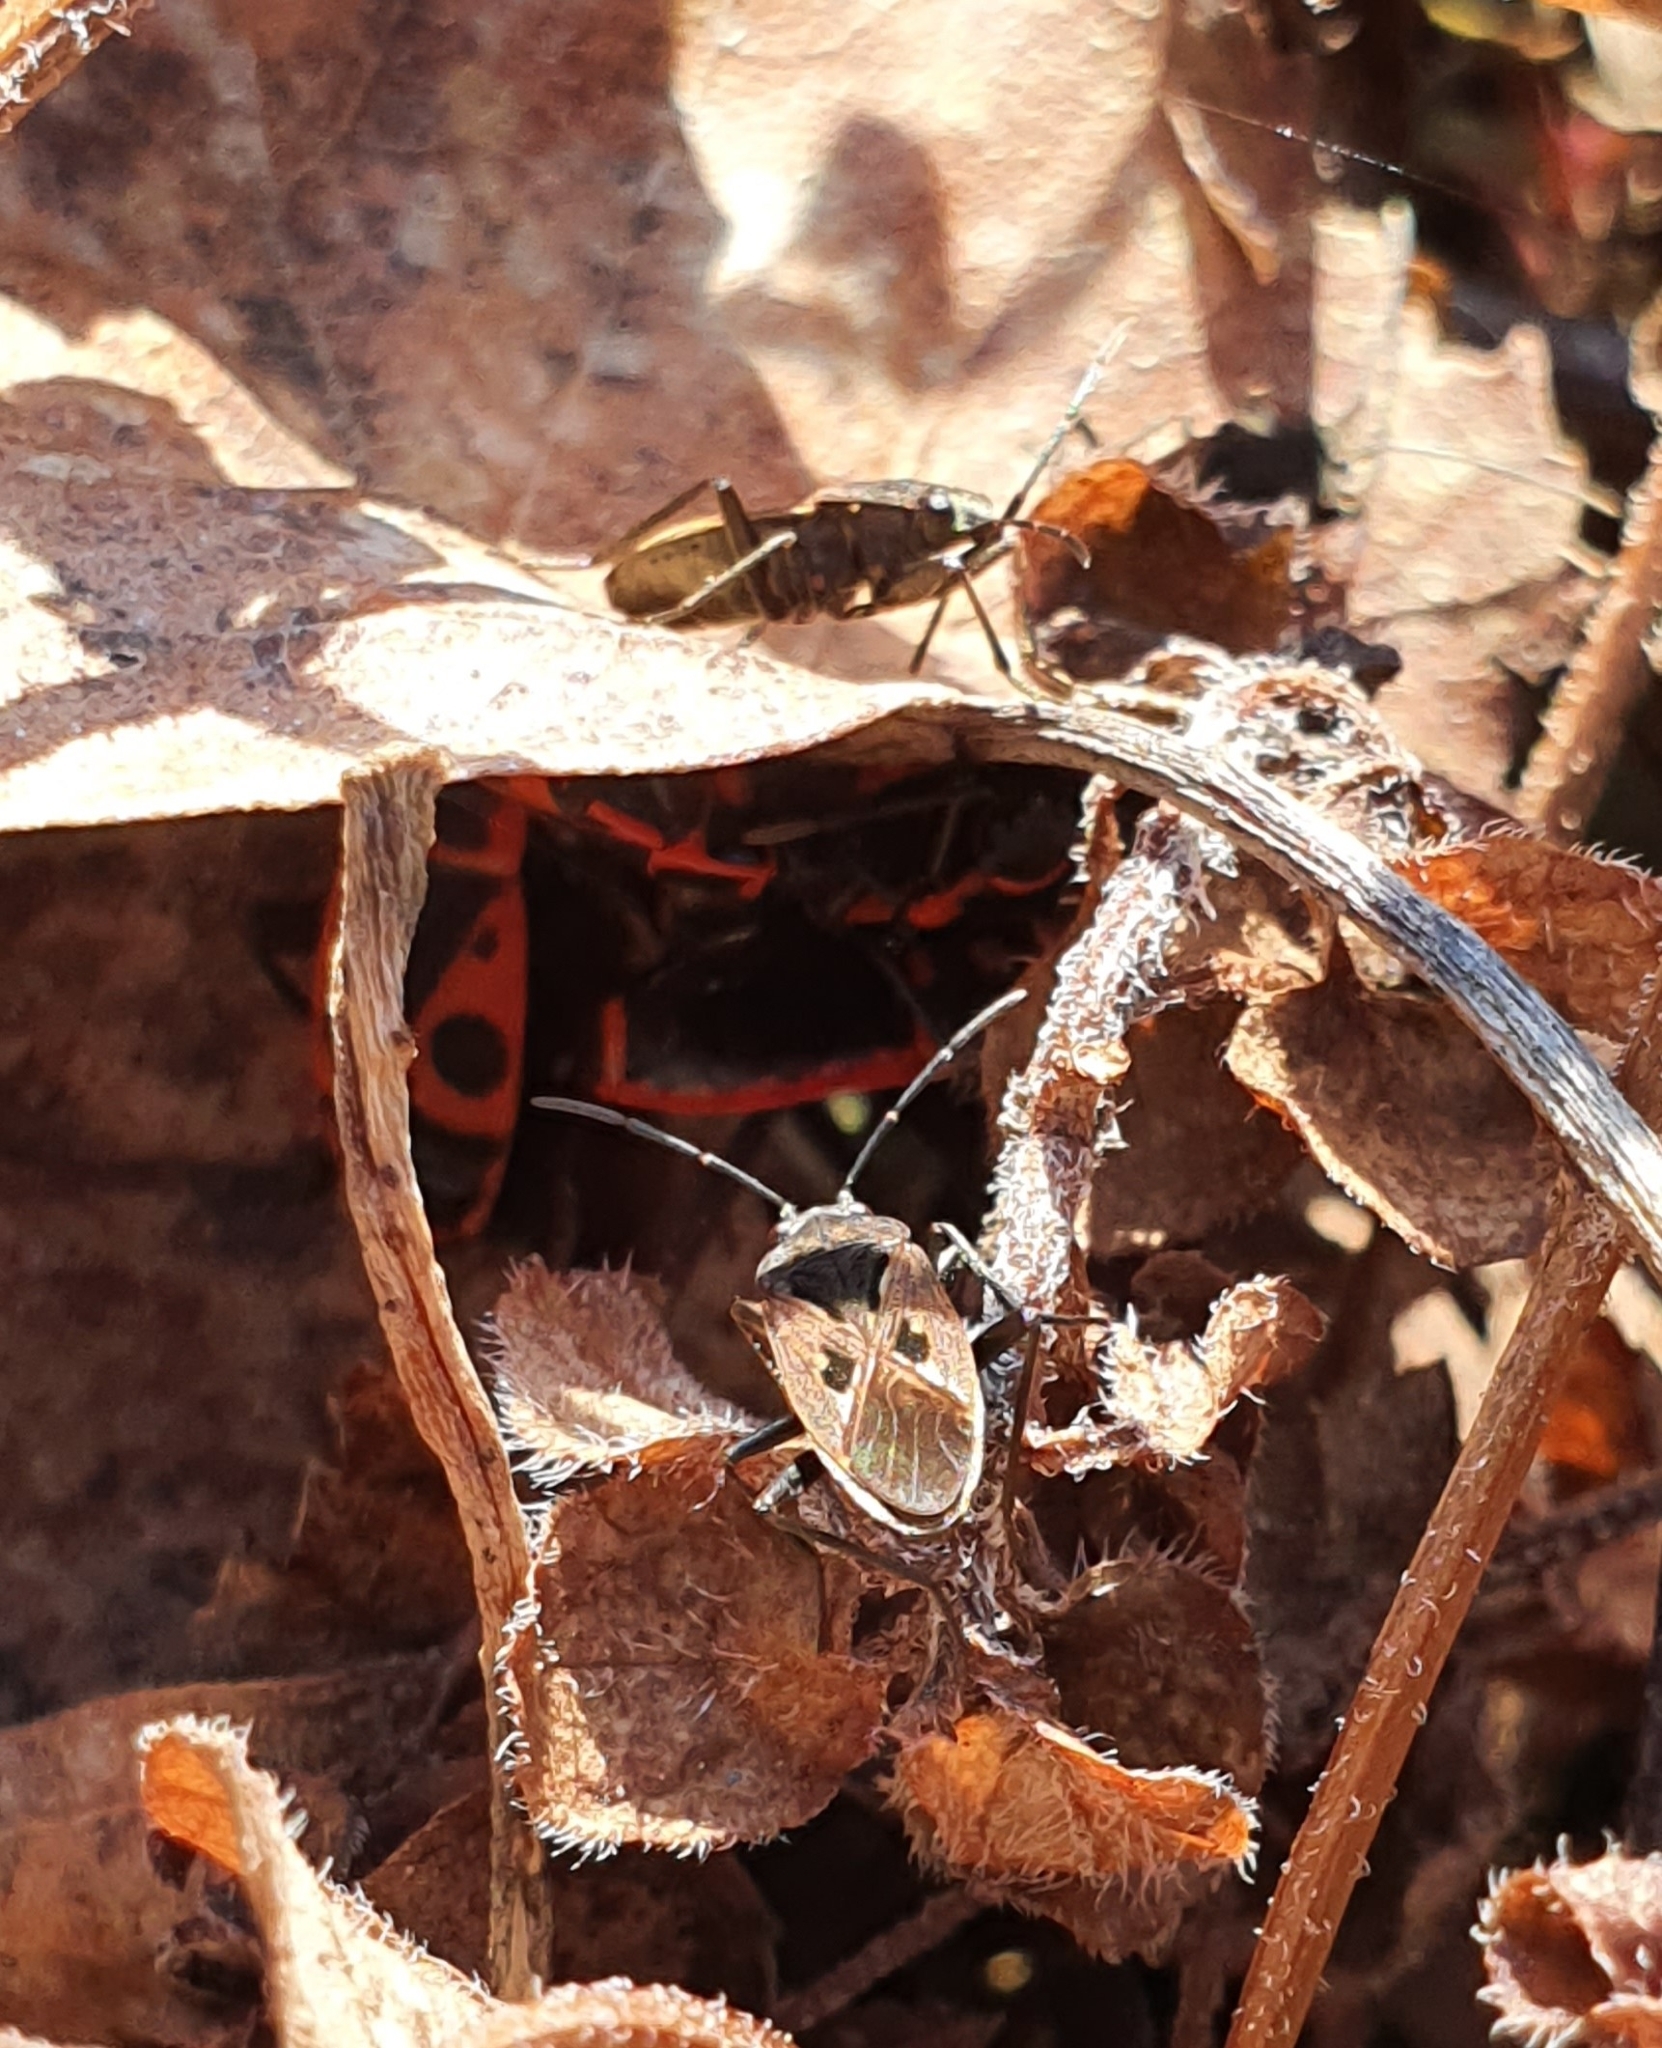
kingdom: Animalia
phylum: Arthropoda
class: Insecta
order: Hemiptera
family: Rhyparochromidae
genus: Rhyparochromus
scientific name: Rhyparochromus pini
